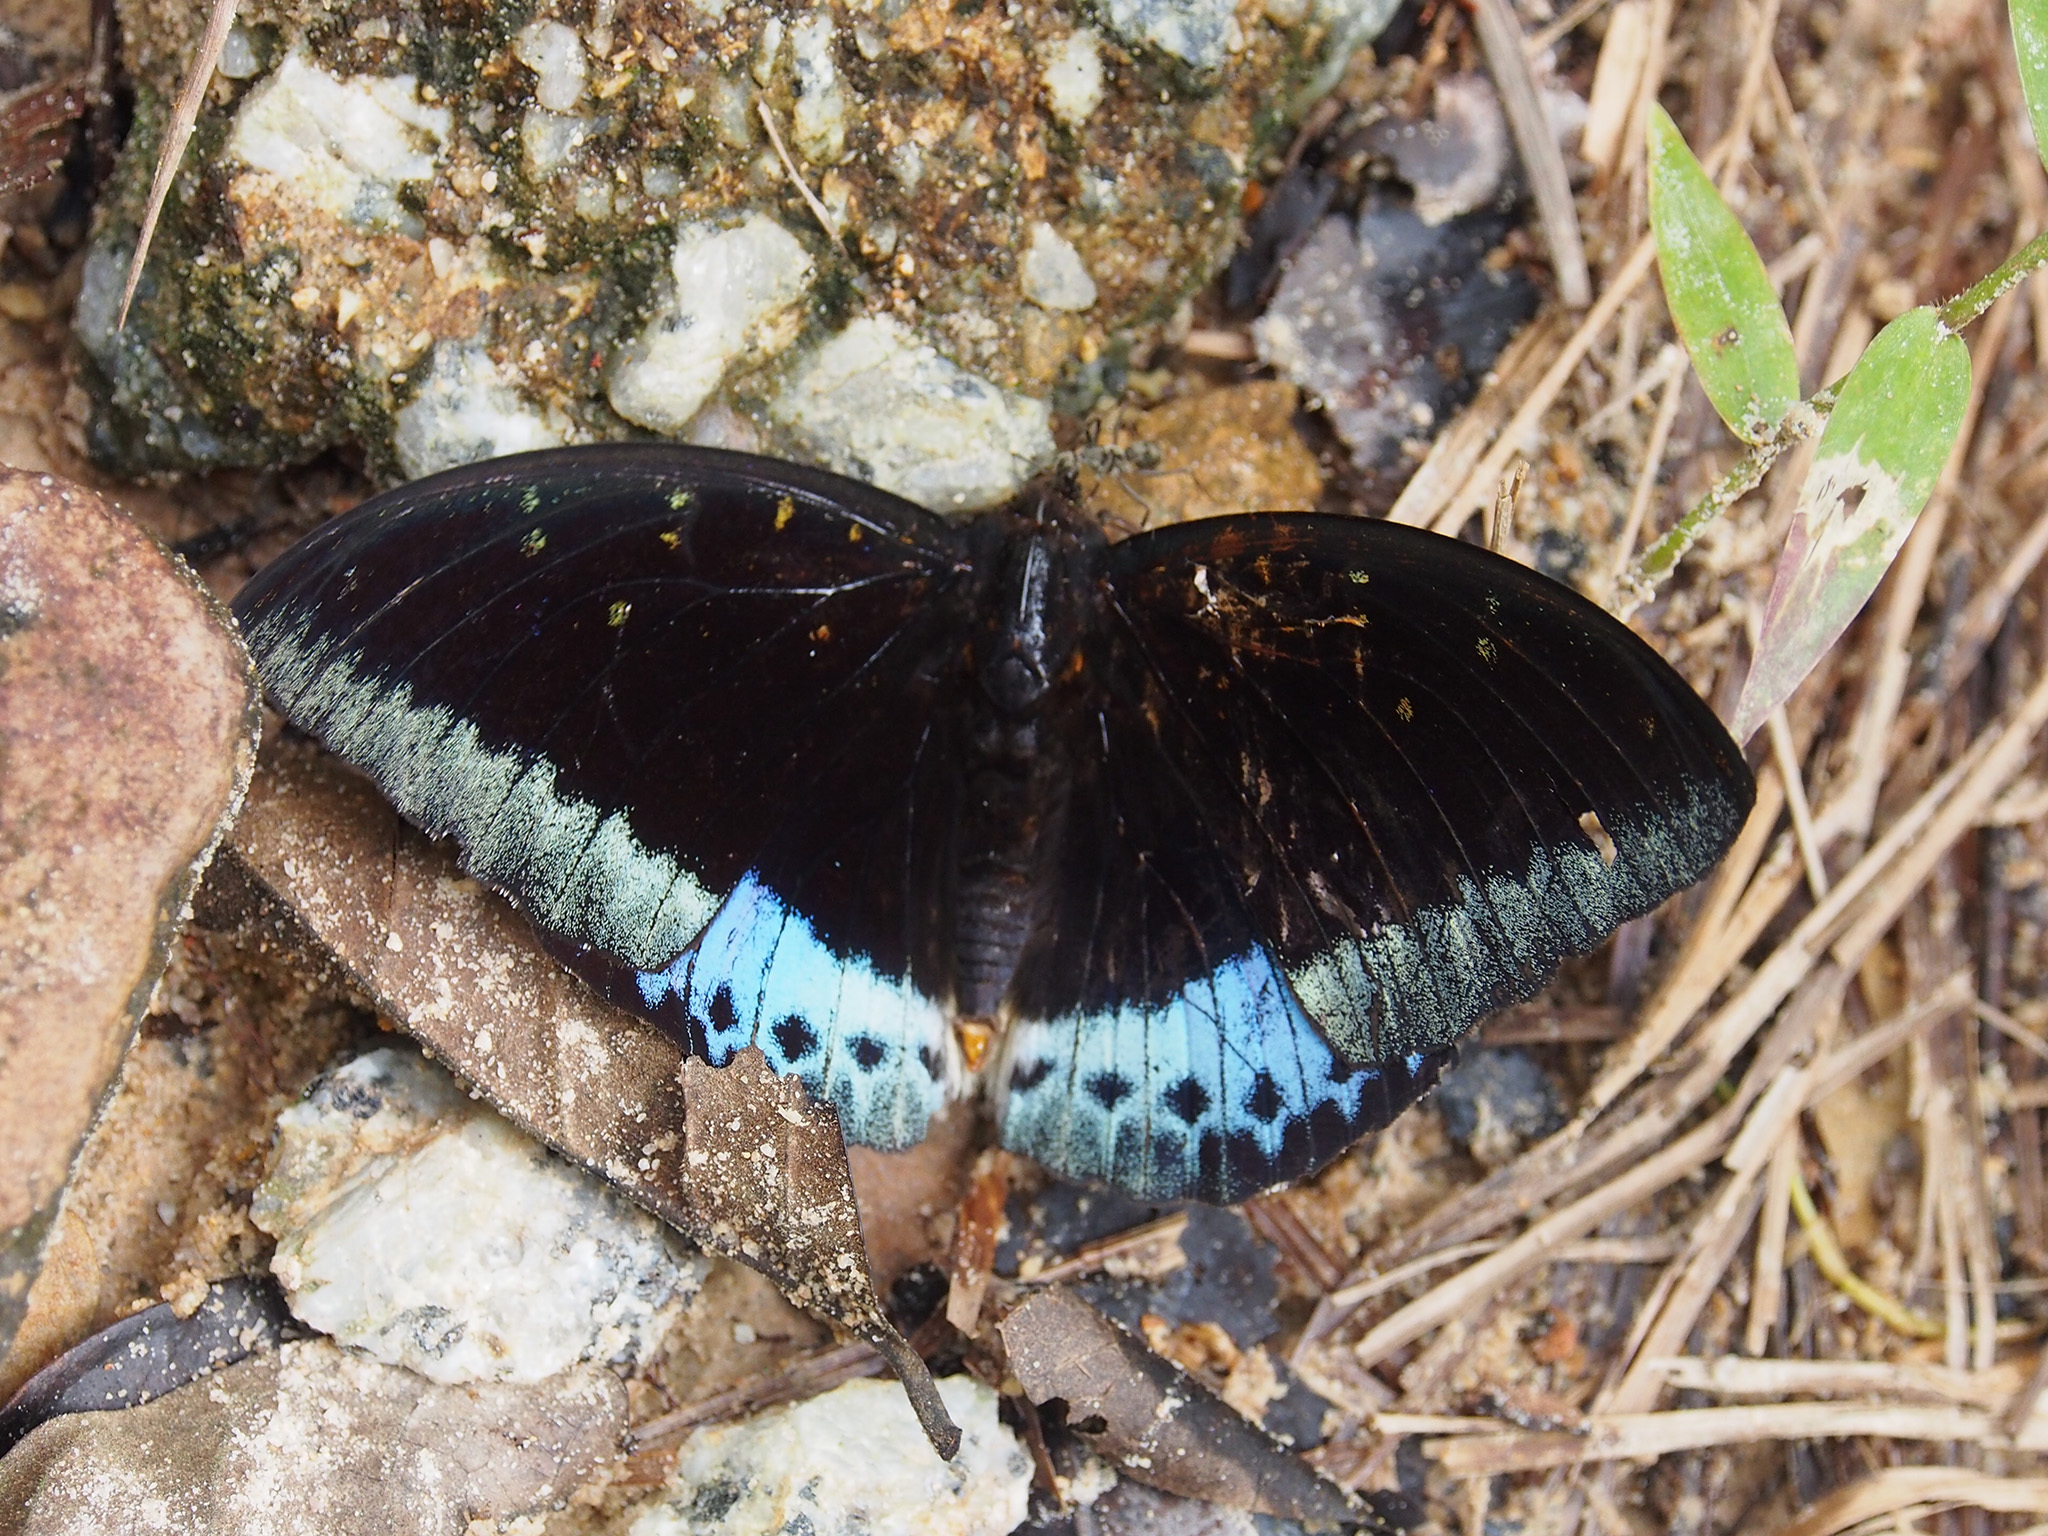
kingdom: Animalia
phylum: Arthropoda
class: Insecta
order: Lepidoptera
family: Nymphalidae
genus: Lexias
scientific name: Lexias pardalis
